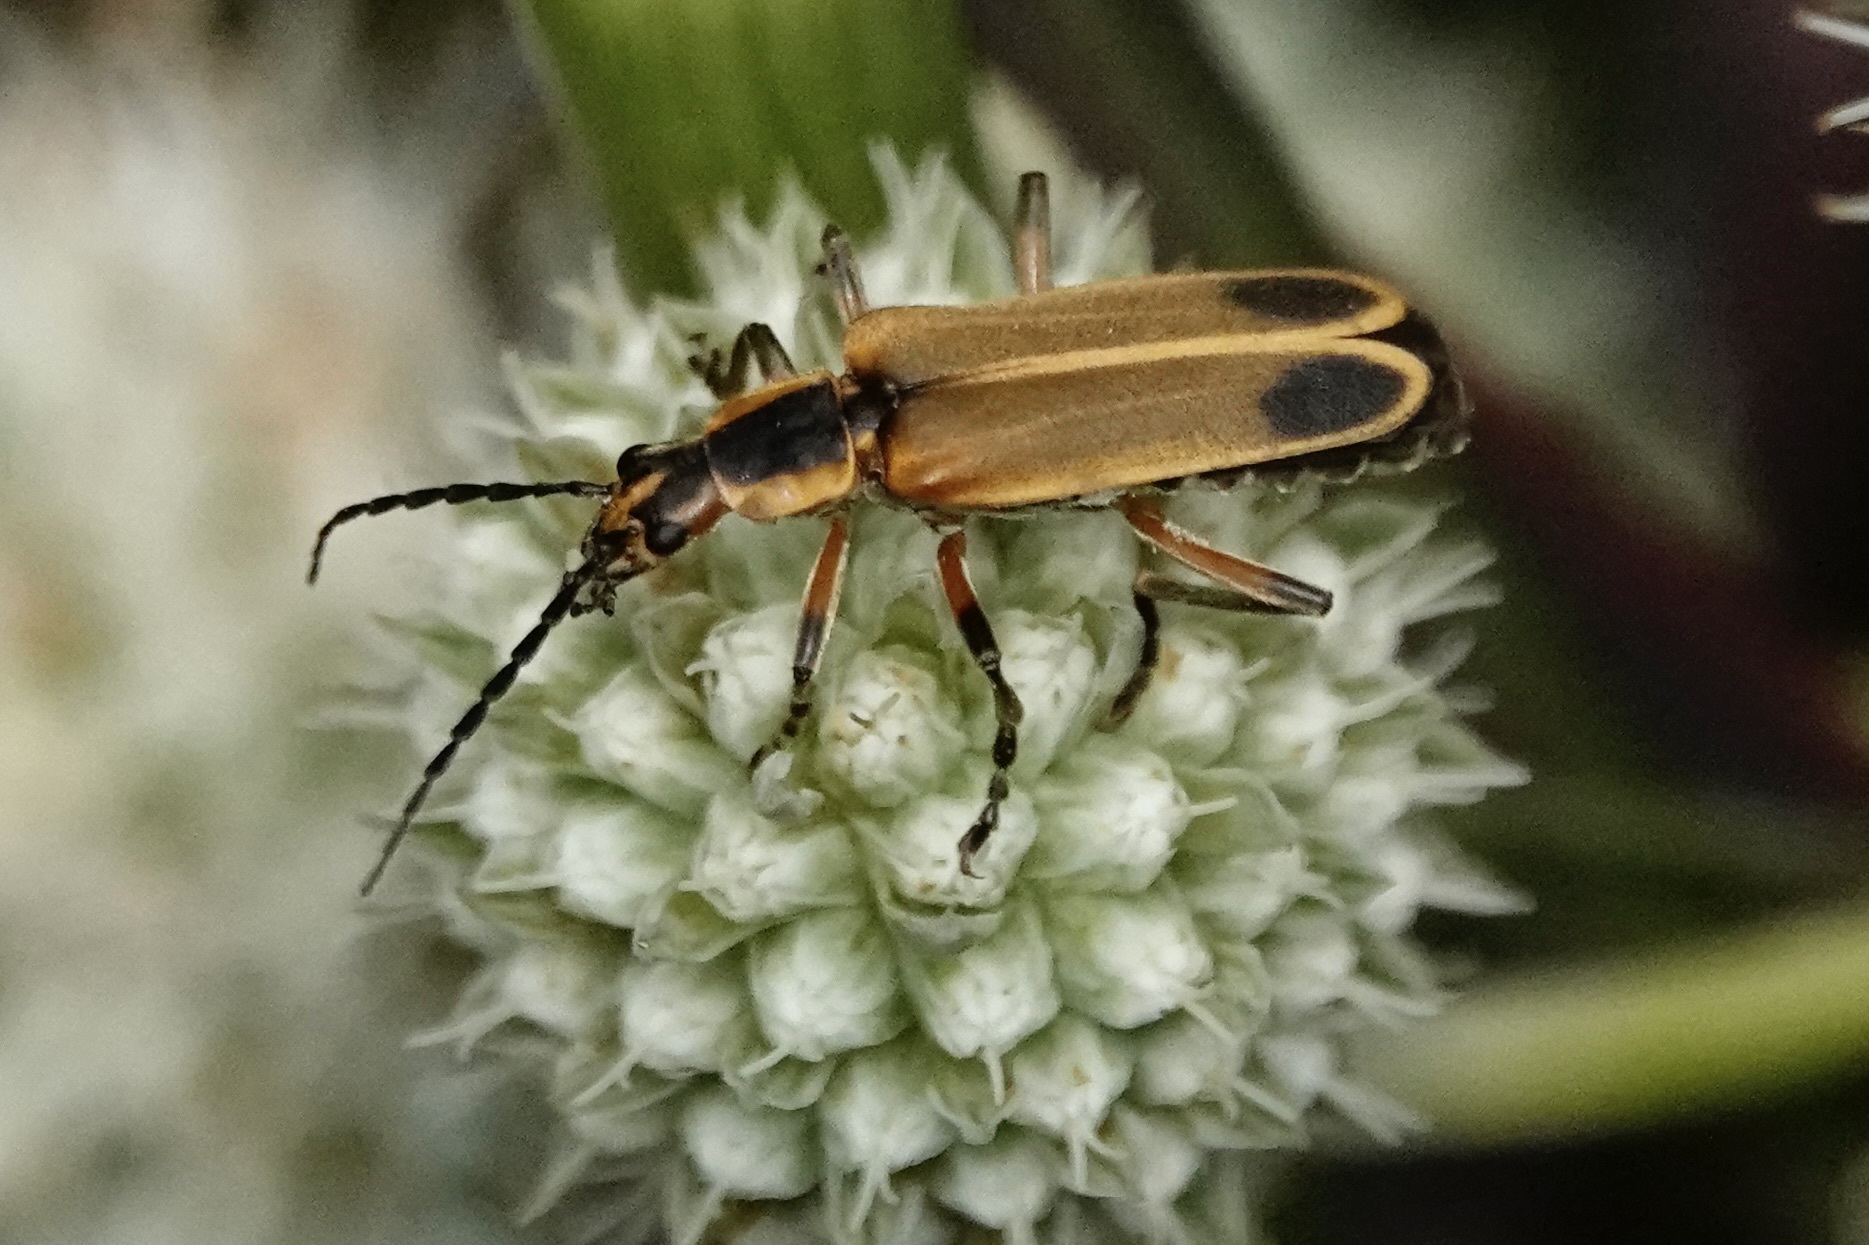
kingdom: Animalia
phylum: Arthropoda
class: Insecta
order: Coleoptera
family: Cantharidae
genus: Chauliognathus
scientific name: Chauliognathus marginatus
